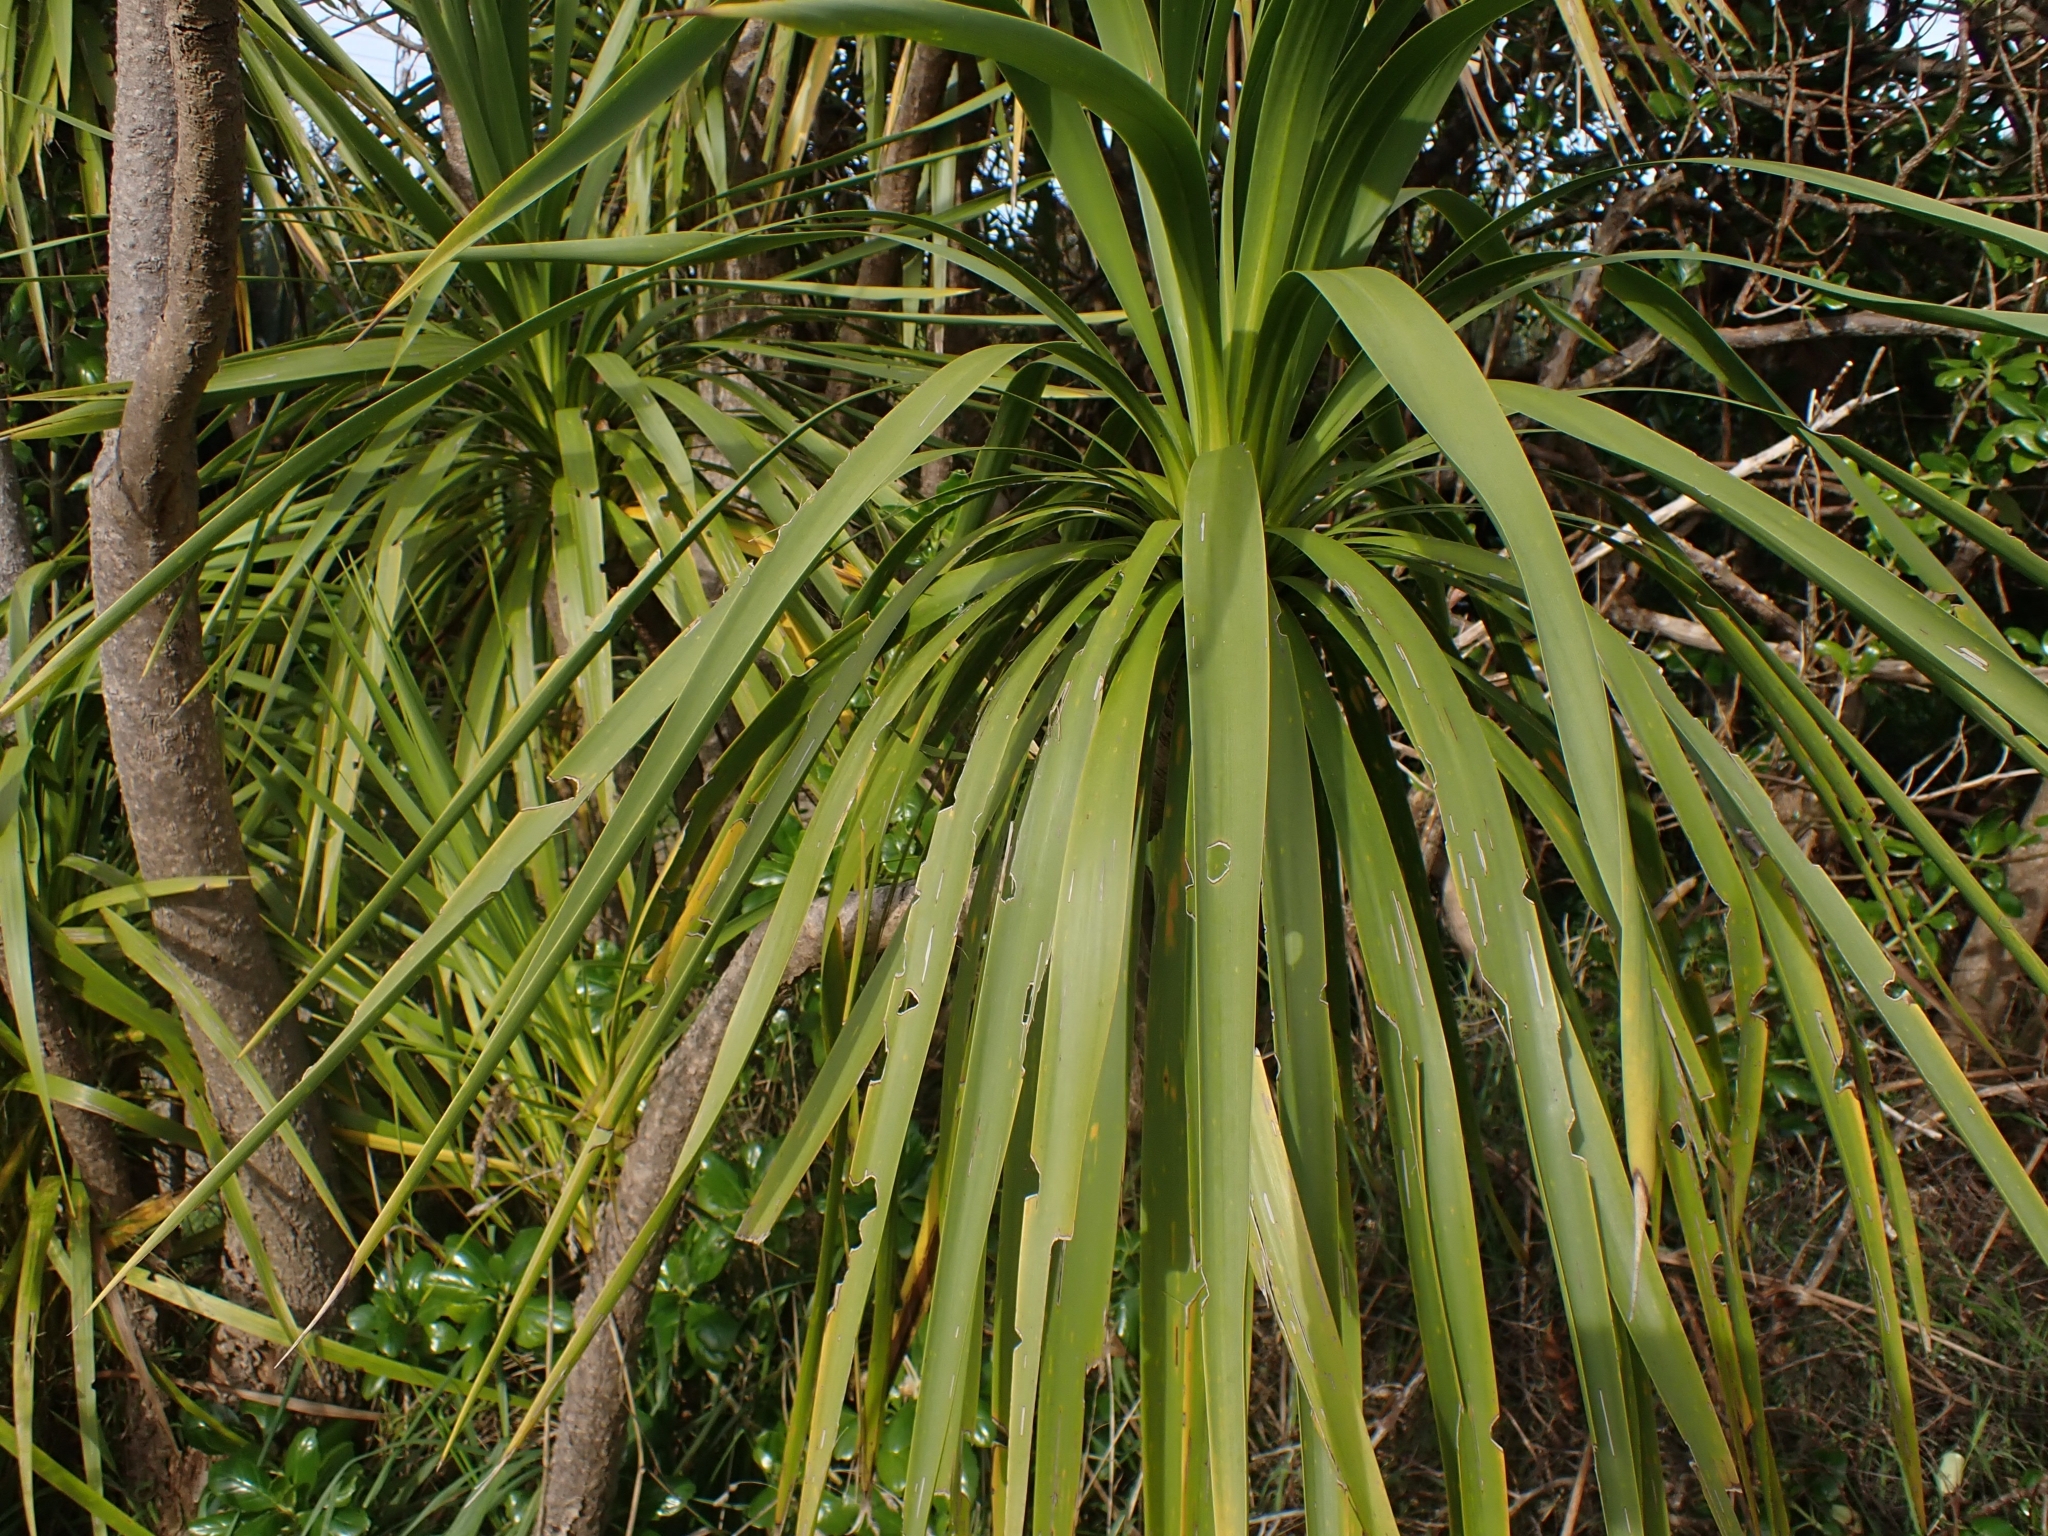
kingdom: Plantae
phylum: Tracheophyta
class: Liliopsida
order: Asparagales
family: Asparagaceae
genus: Cordyline
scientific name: Cordyline australis
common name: Cabbage-palm
